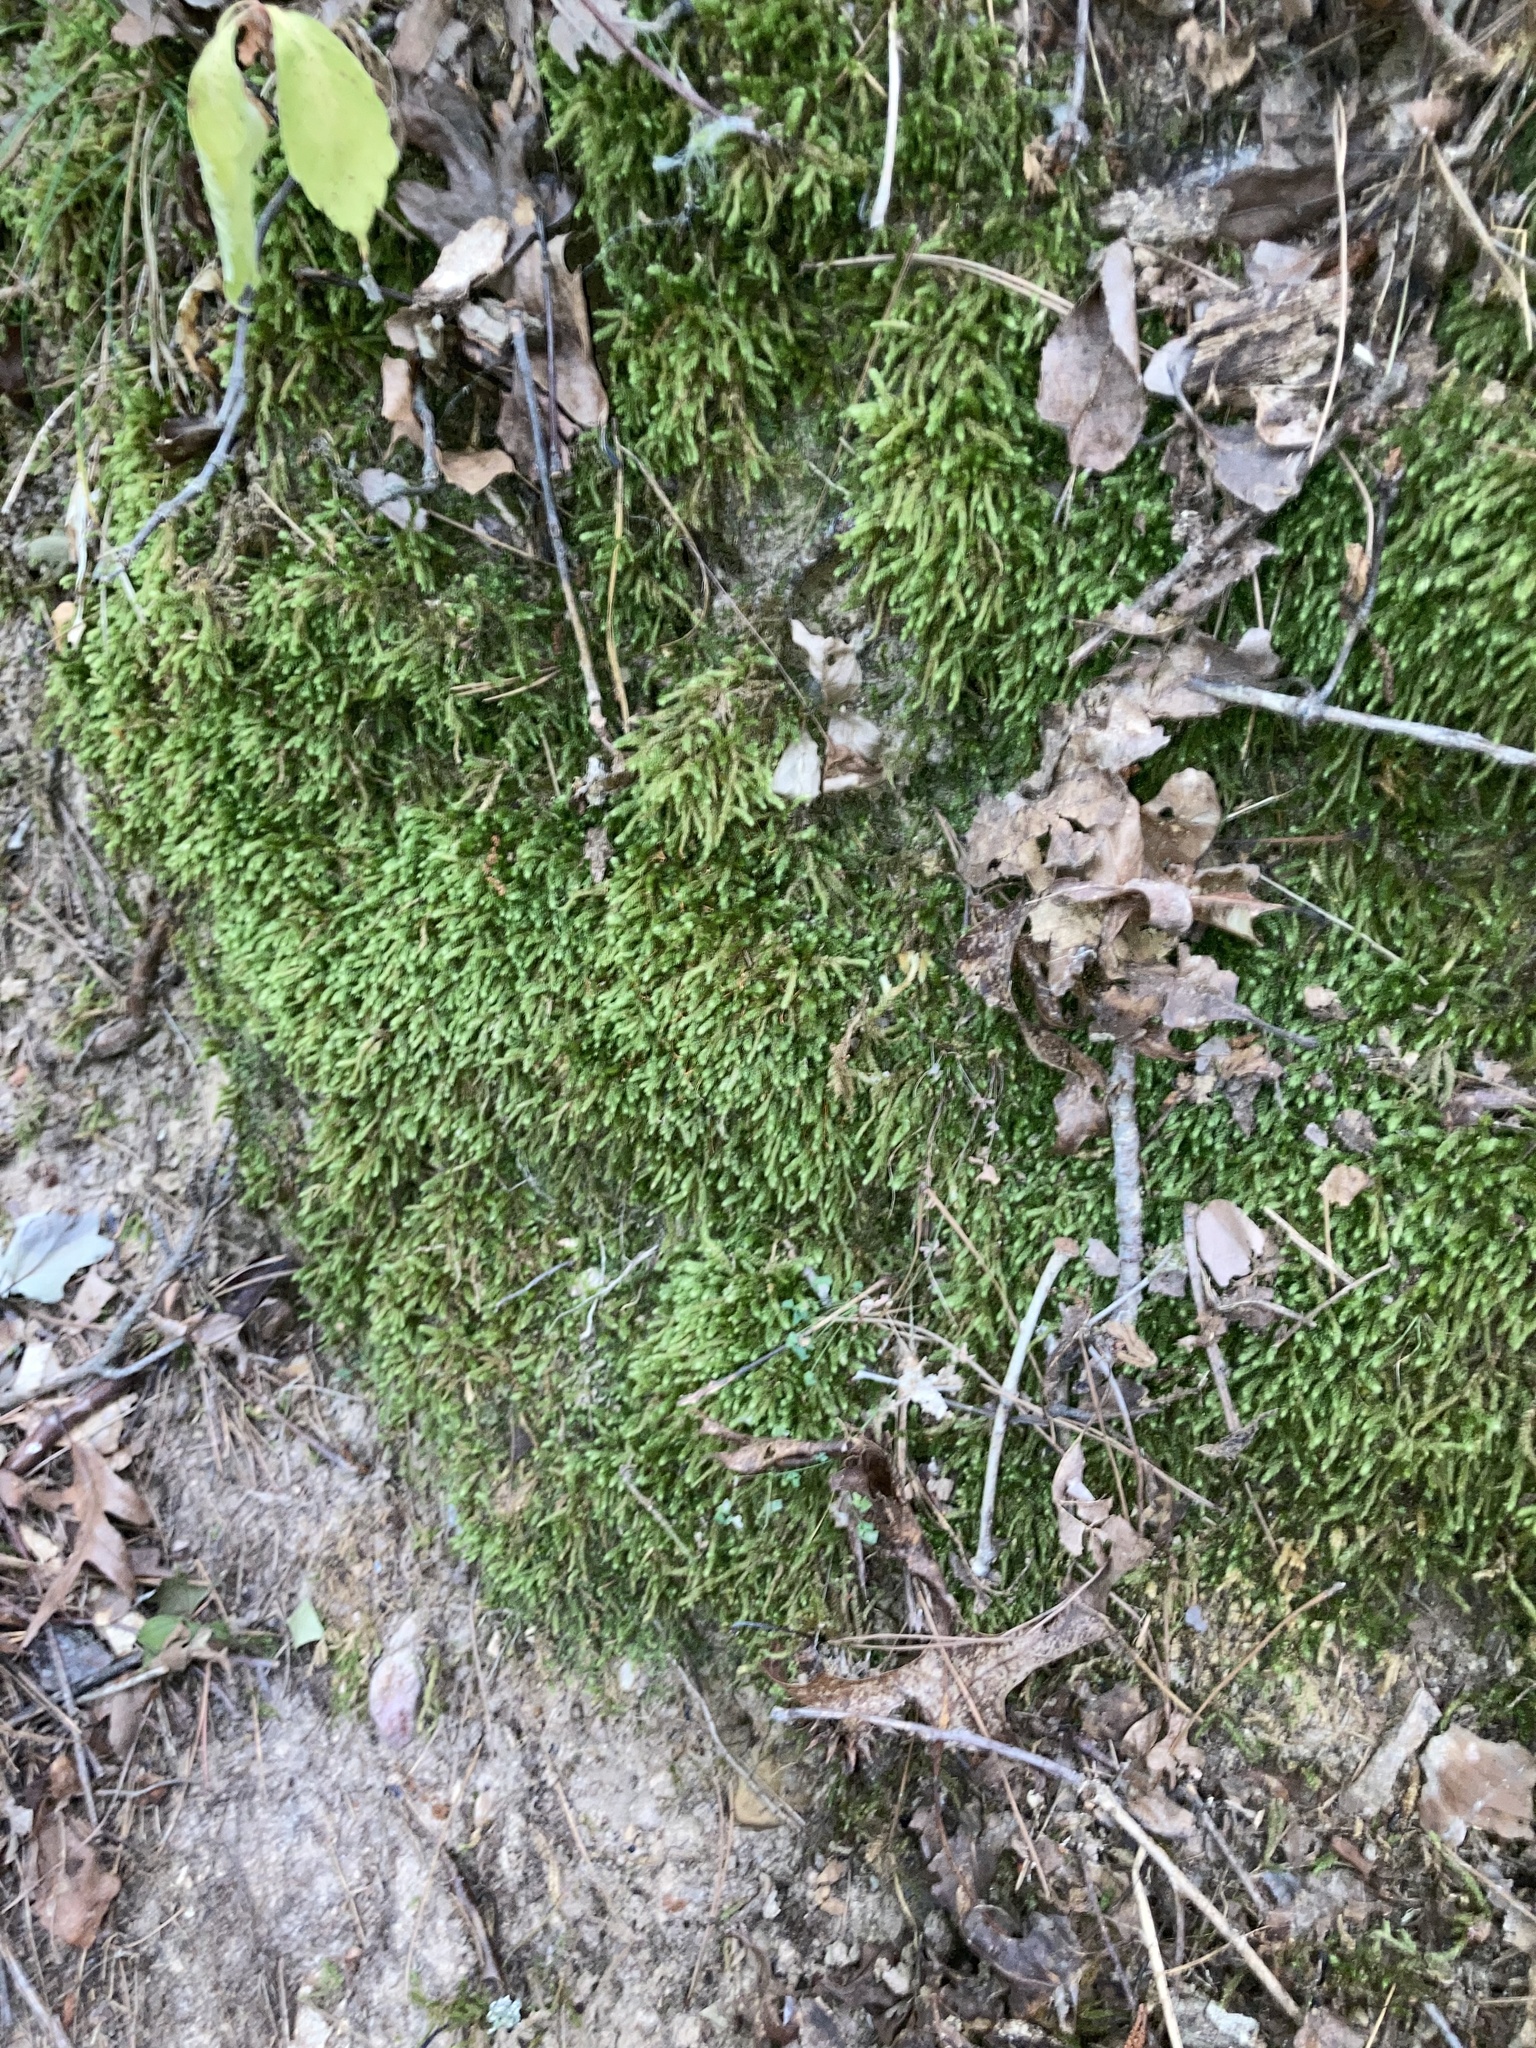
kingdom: Plantae
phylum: Bryophyta
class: Bryopsida
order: Hypnales
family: Brachytheciaceae
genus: Bryoandersonia
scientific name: Bryoandersonia illecebra
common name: Spoon-leaved moss
